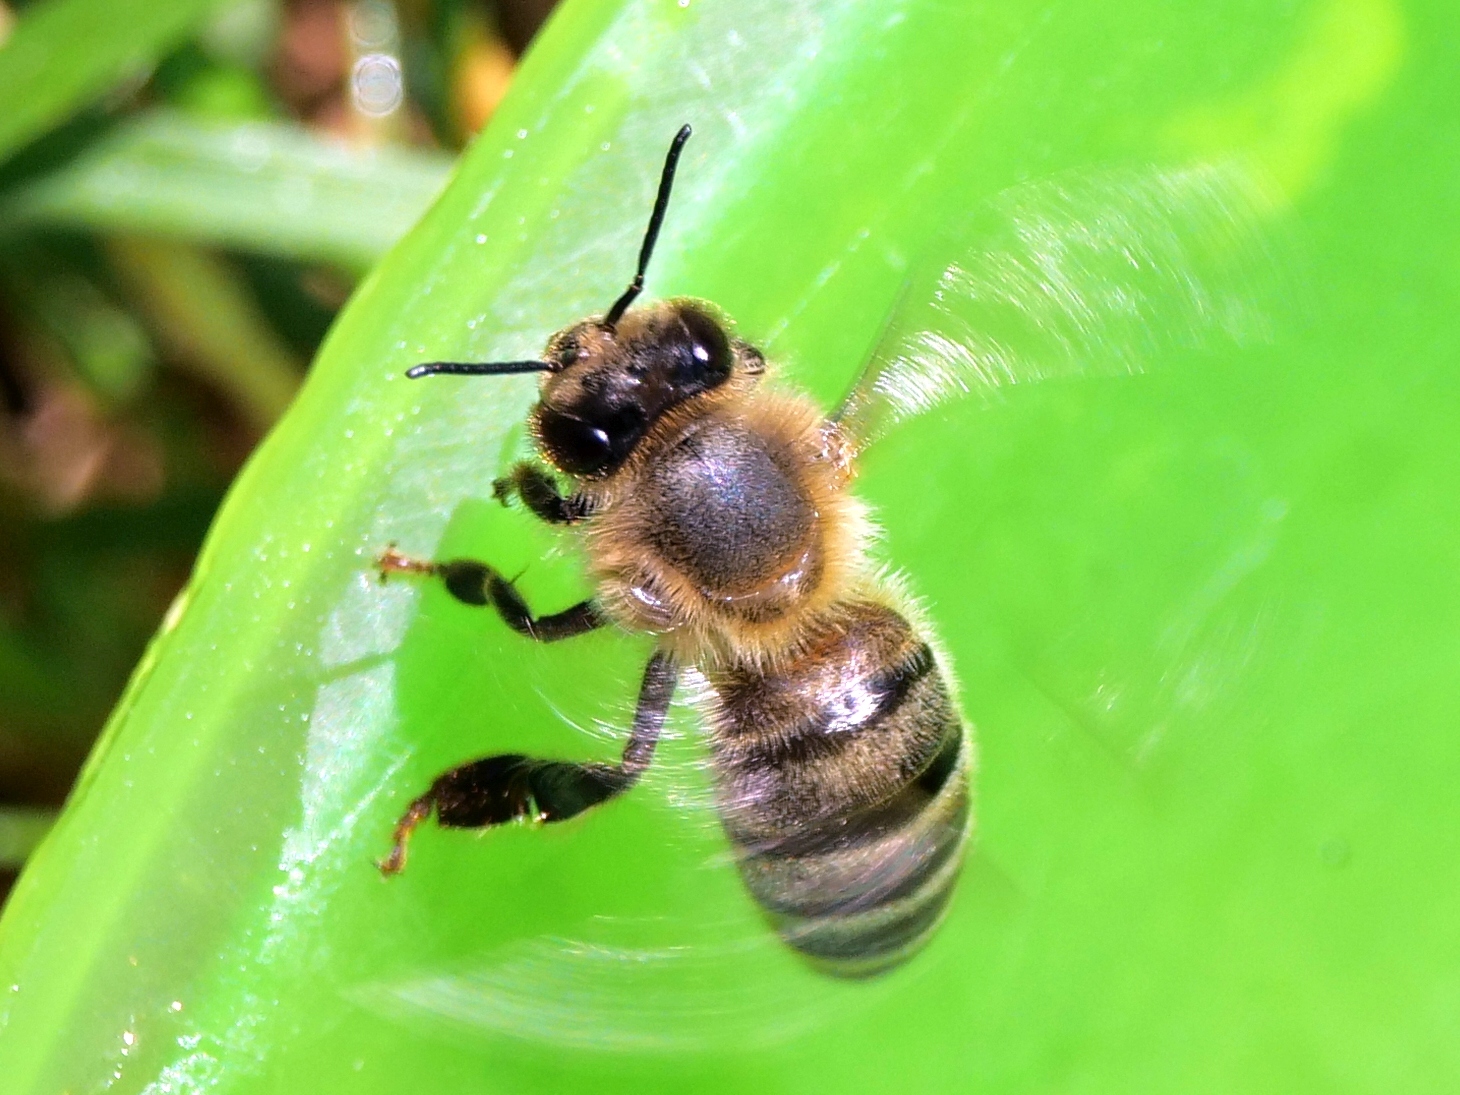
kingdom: Animalia
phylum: Arthropoda
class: Insecta
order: Hymenoptera
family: Apidae
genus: Apis
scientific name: Apis mellifera
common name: Honey bee
